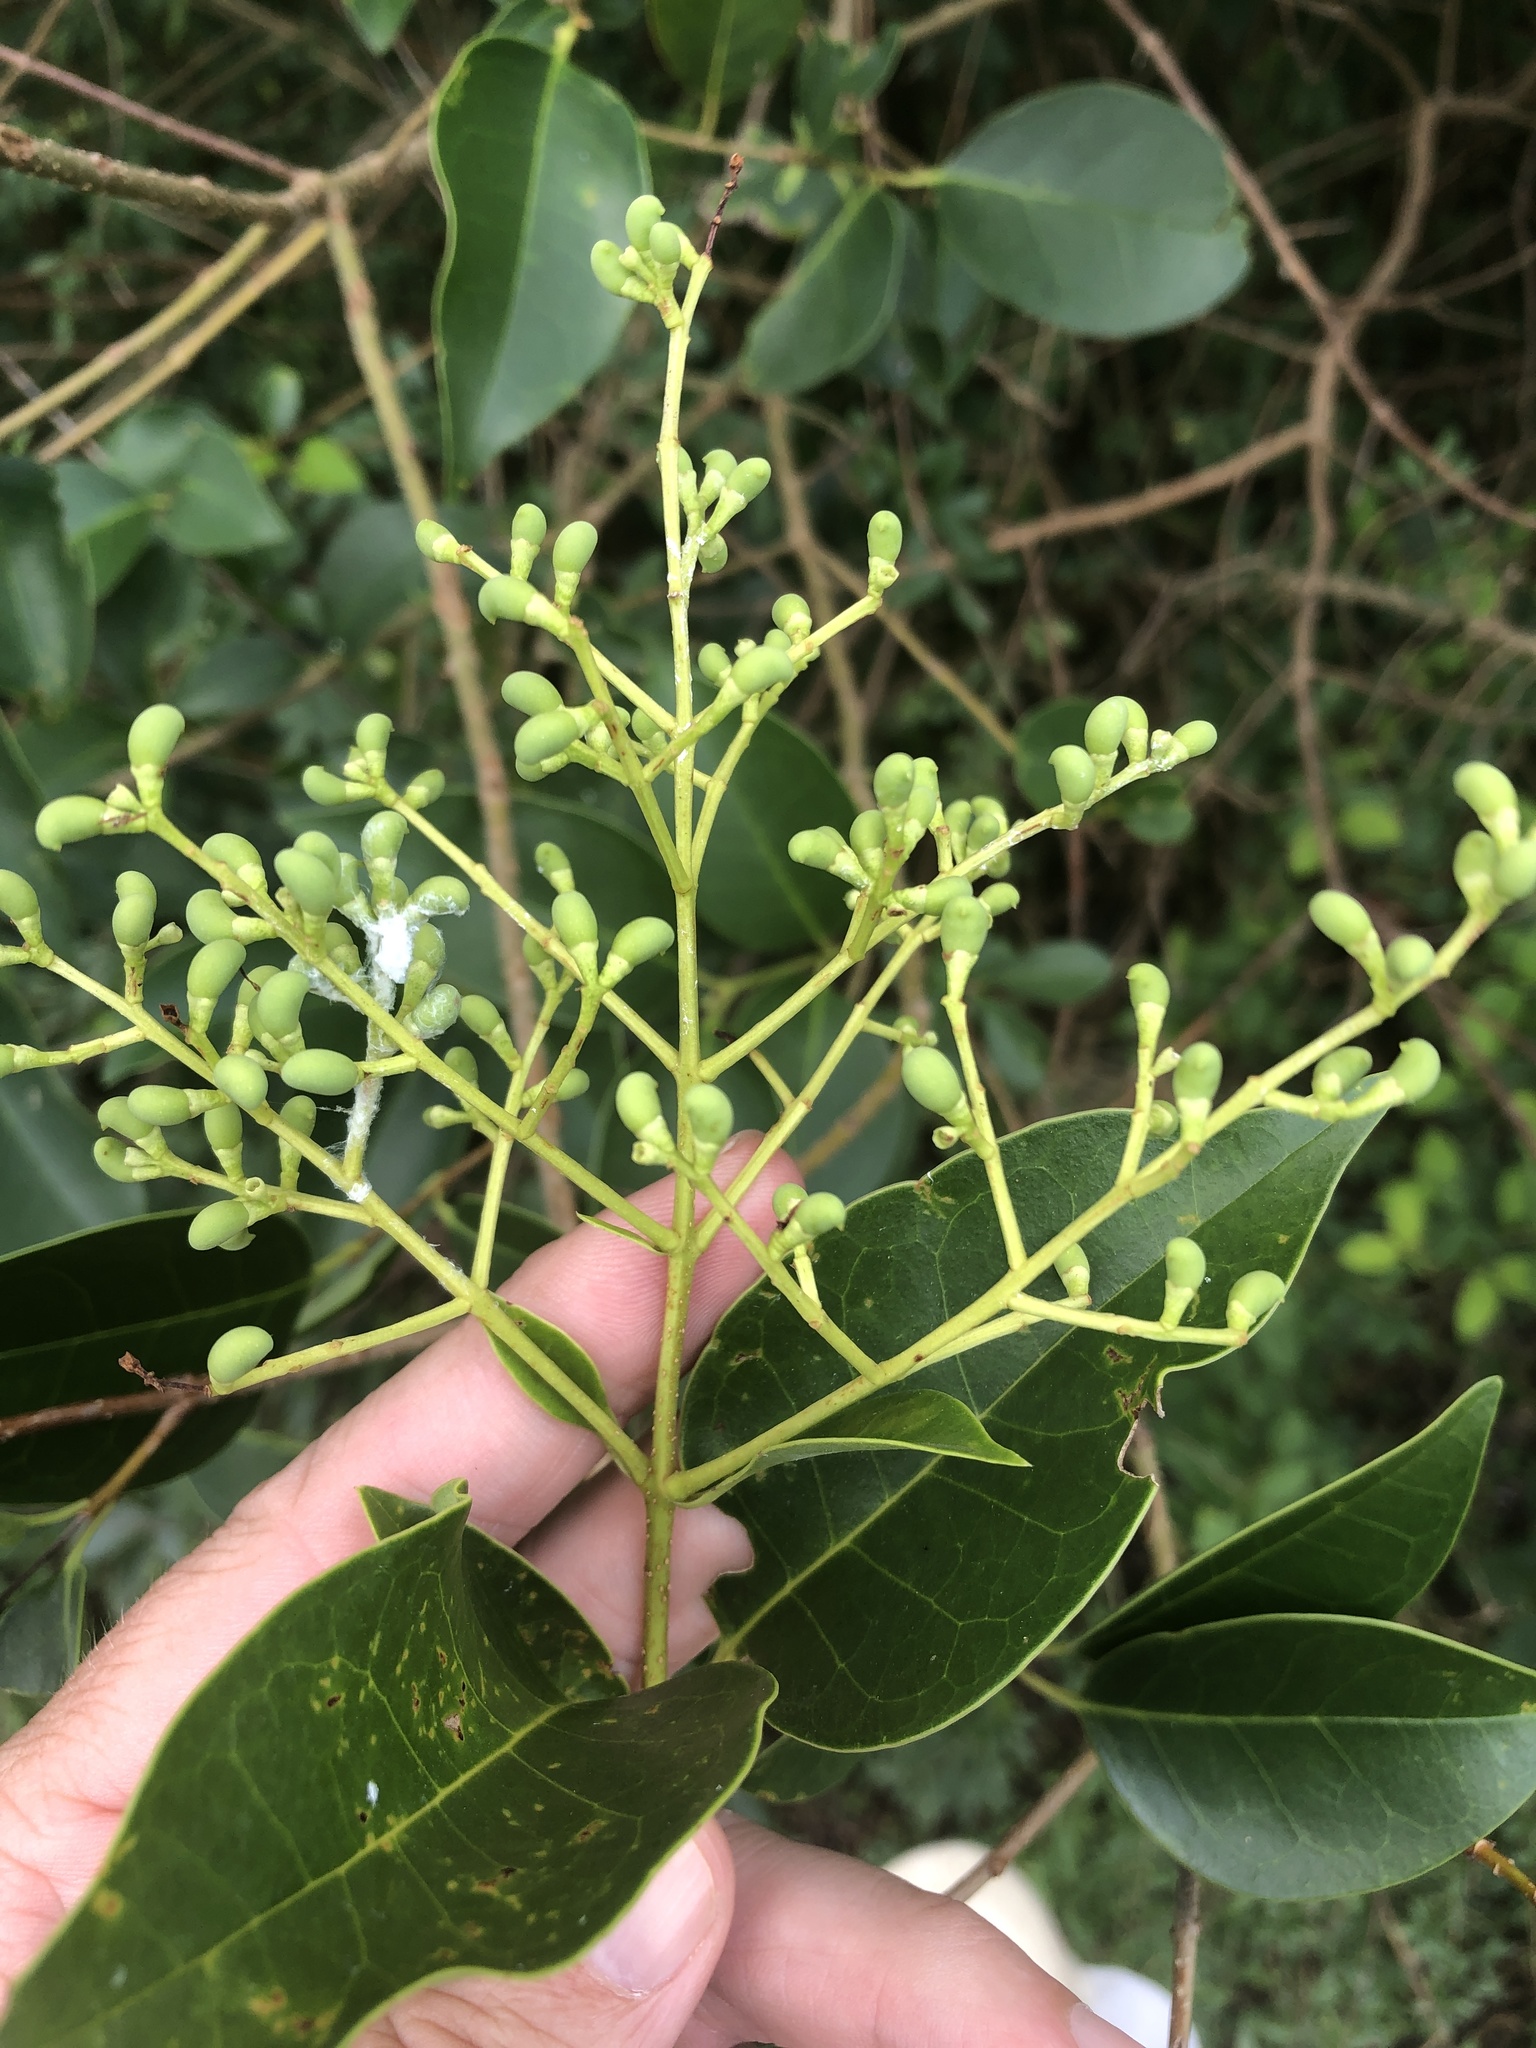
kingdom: Plantae
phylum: Tracheophyta
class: Magnoliopsida
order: Lamiales
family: Oleaceae
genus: Ligustrum
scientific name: Ligustrum lucidum
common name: Glossy privet
